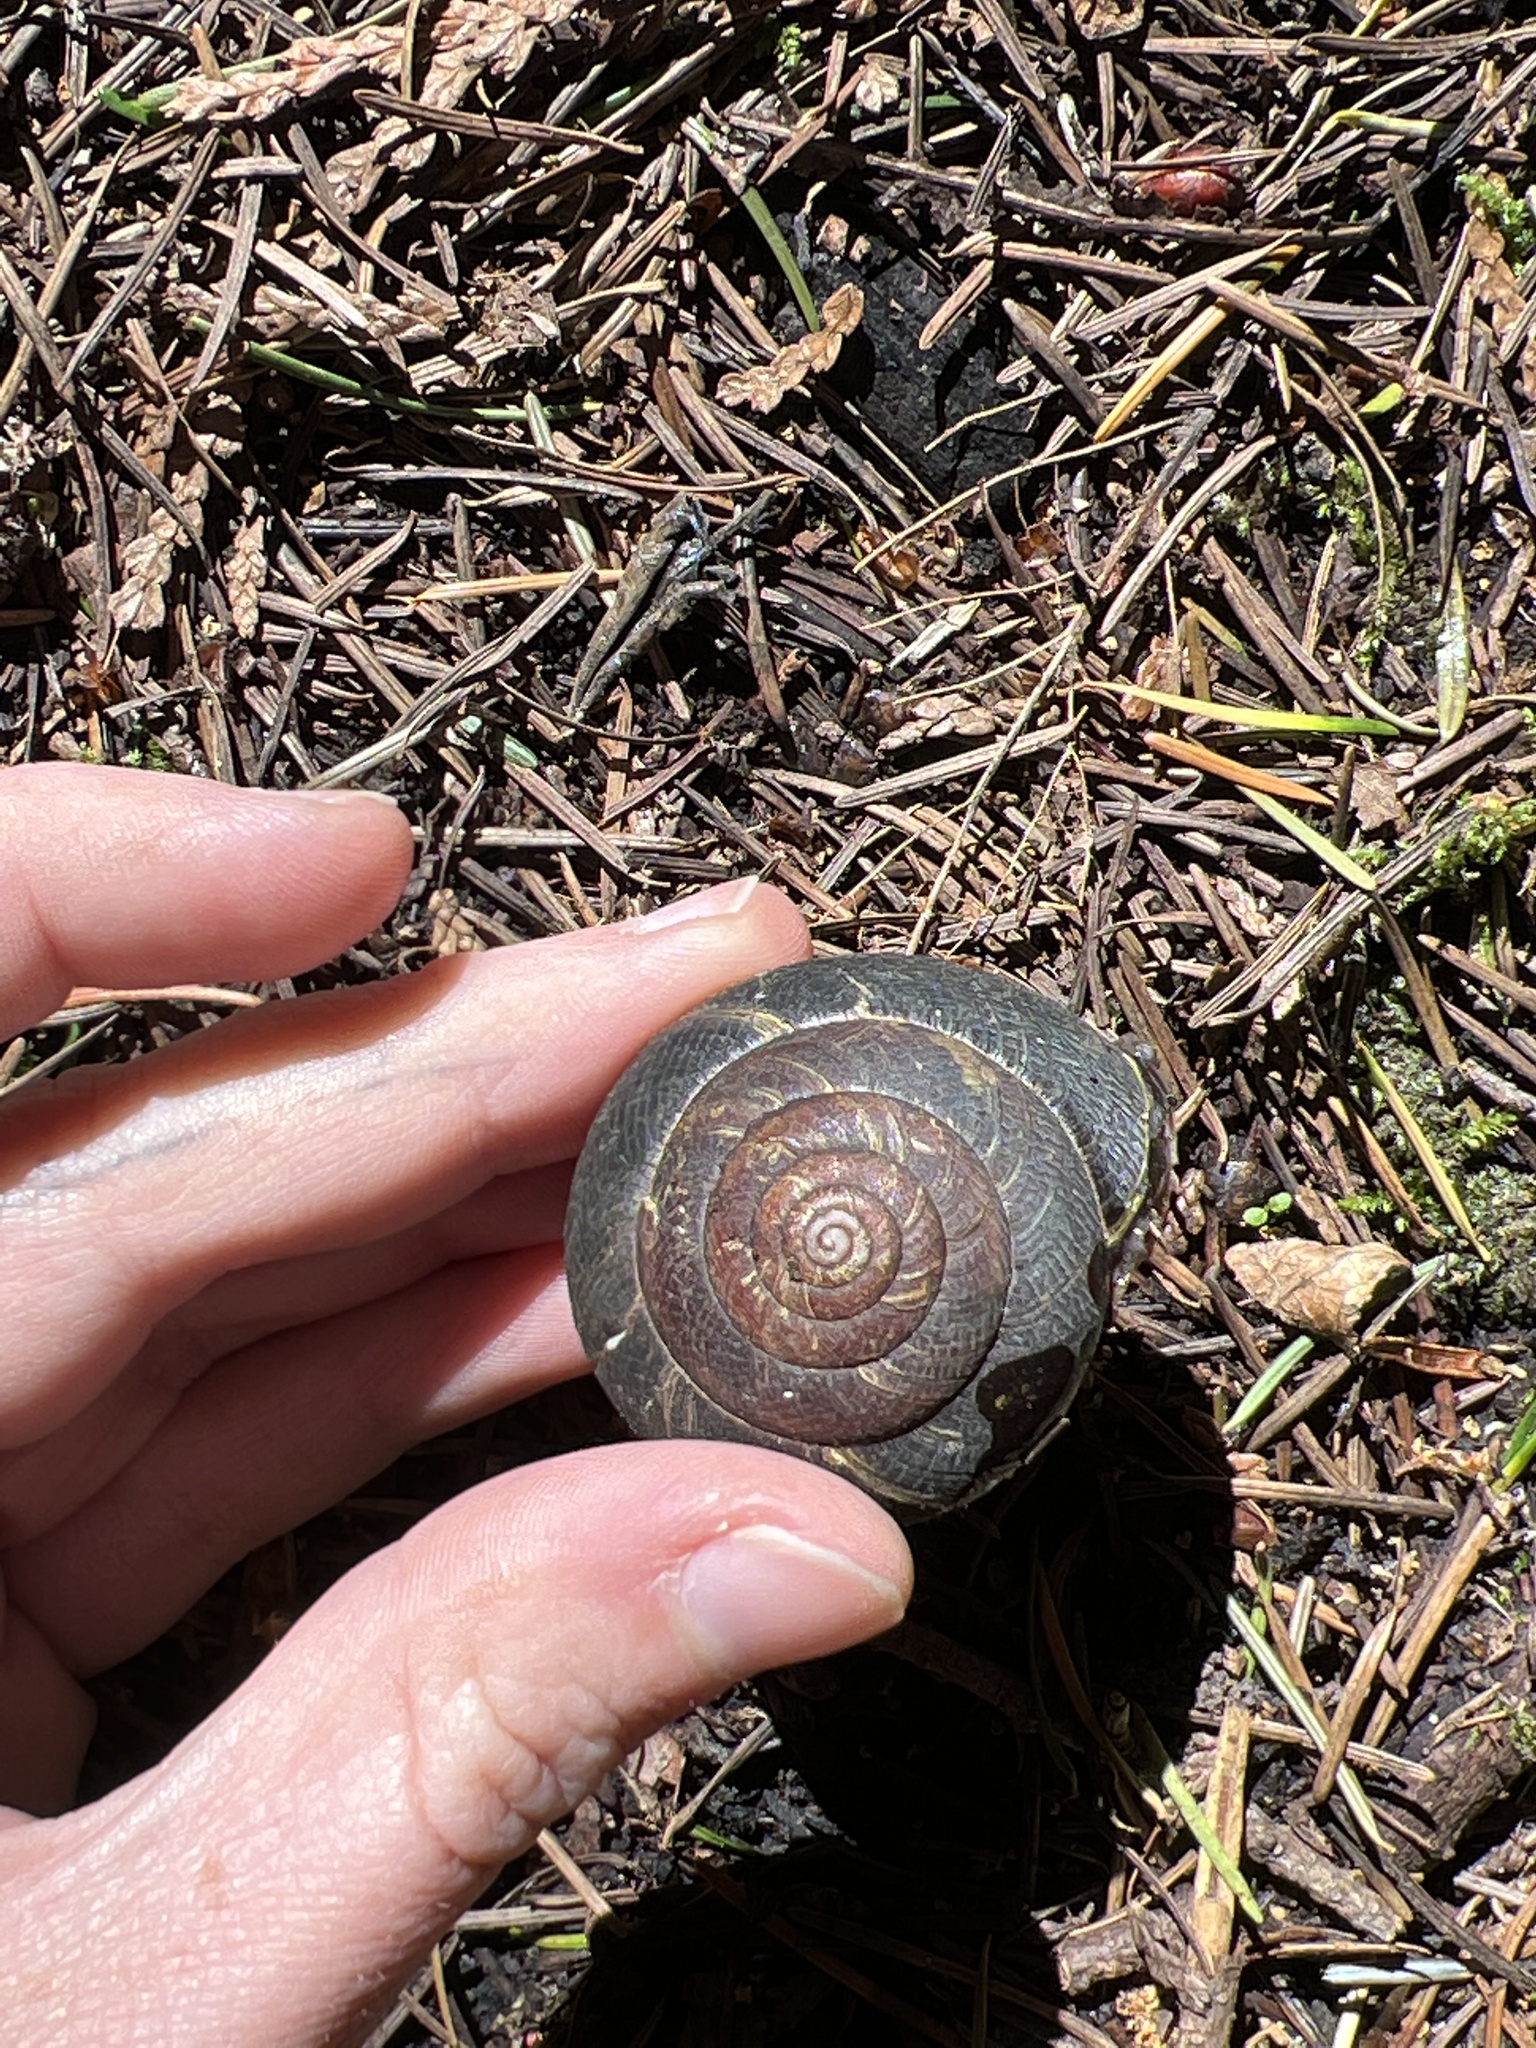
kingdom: Animalia
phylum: Mollusca
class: Gastropoda
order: Stylommatophora
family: Xanthonychidae
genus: Monadenia
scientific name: Monadenia fidelis
